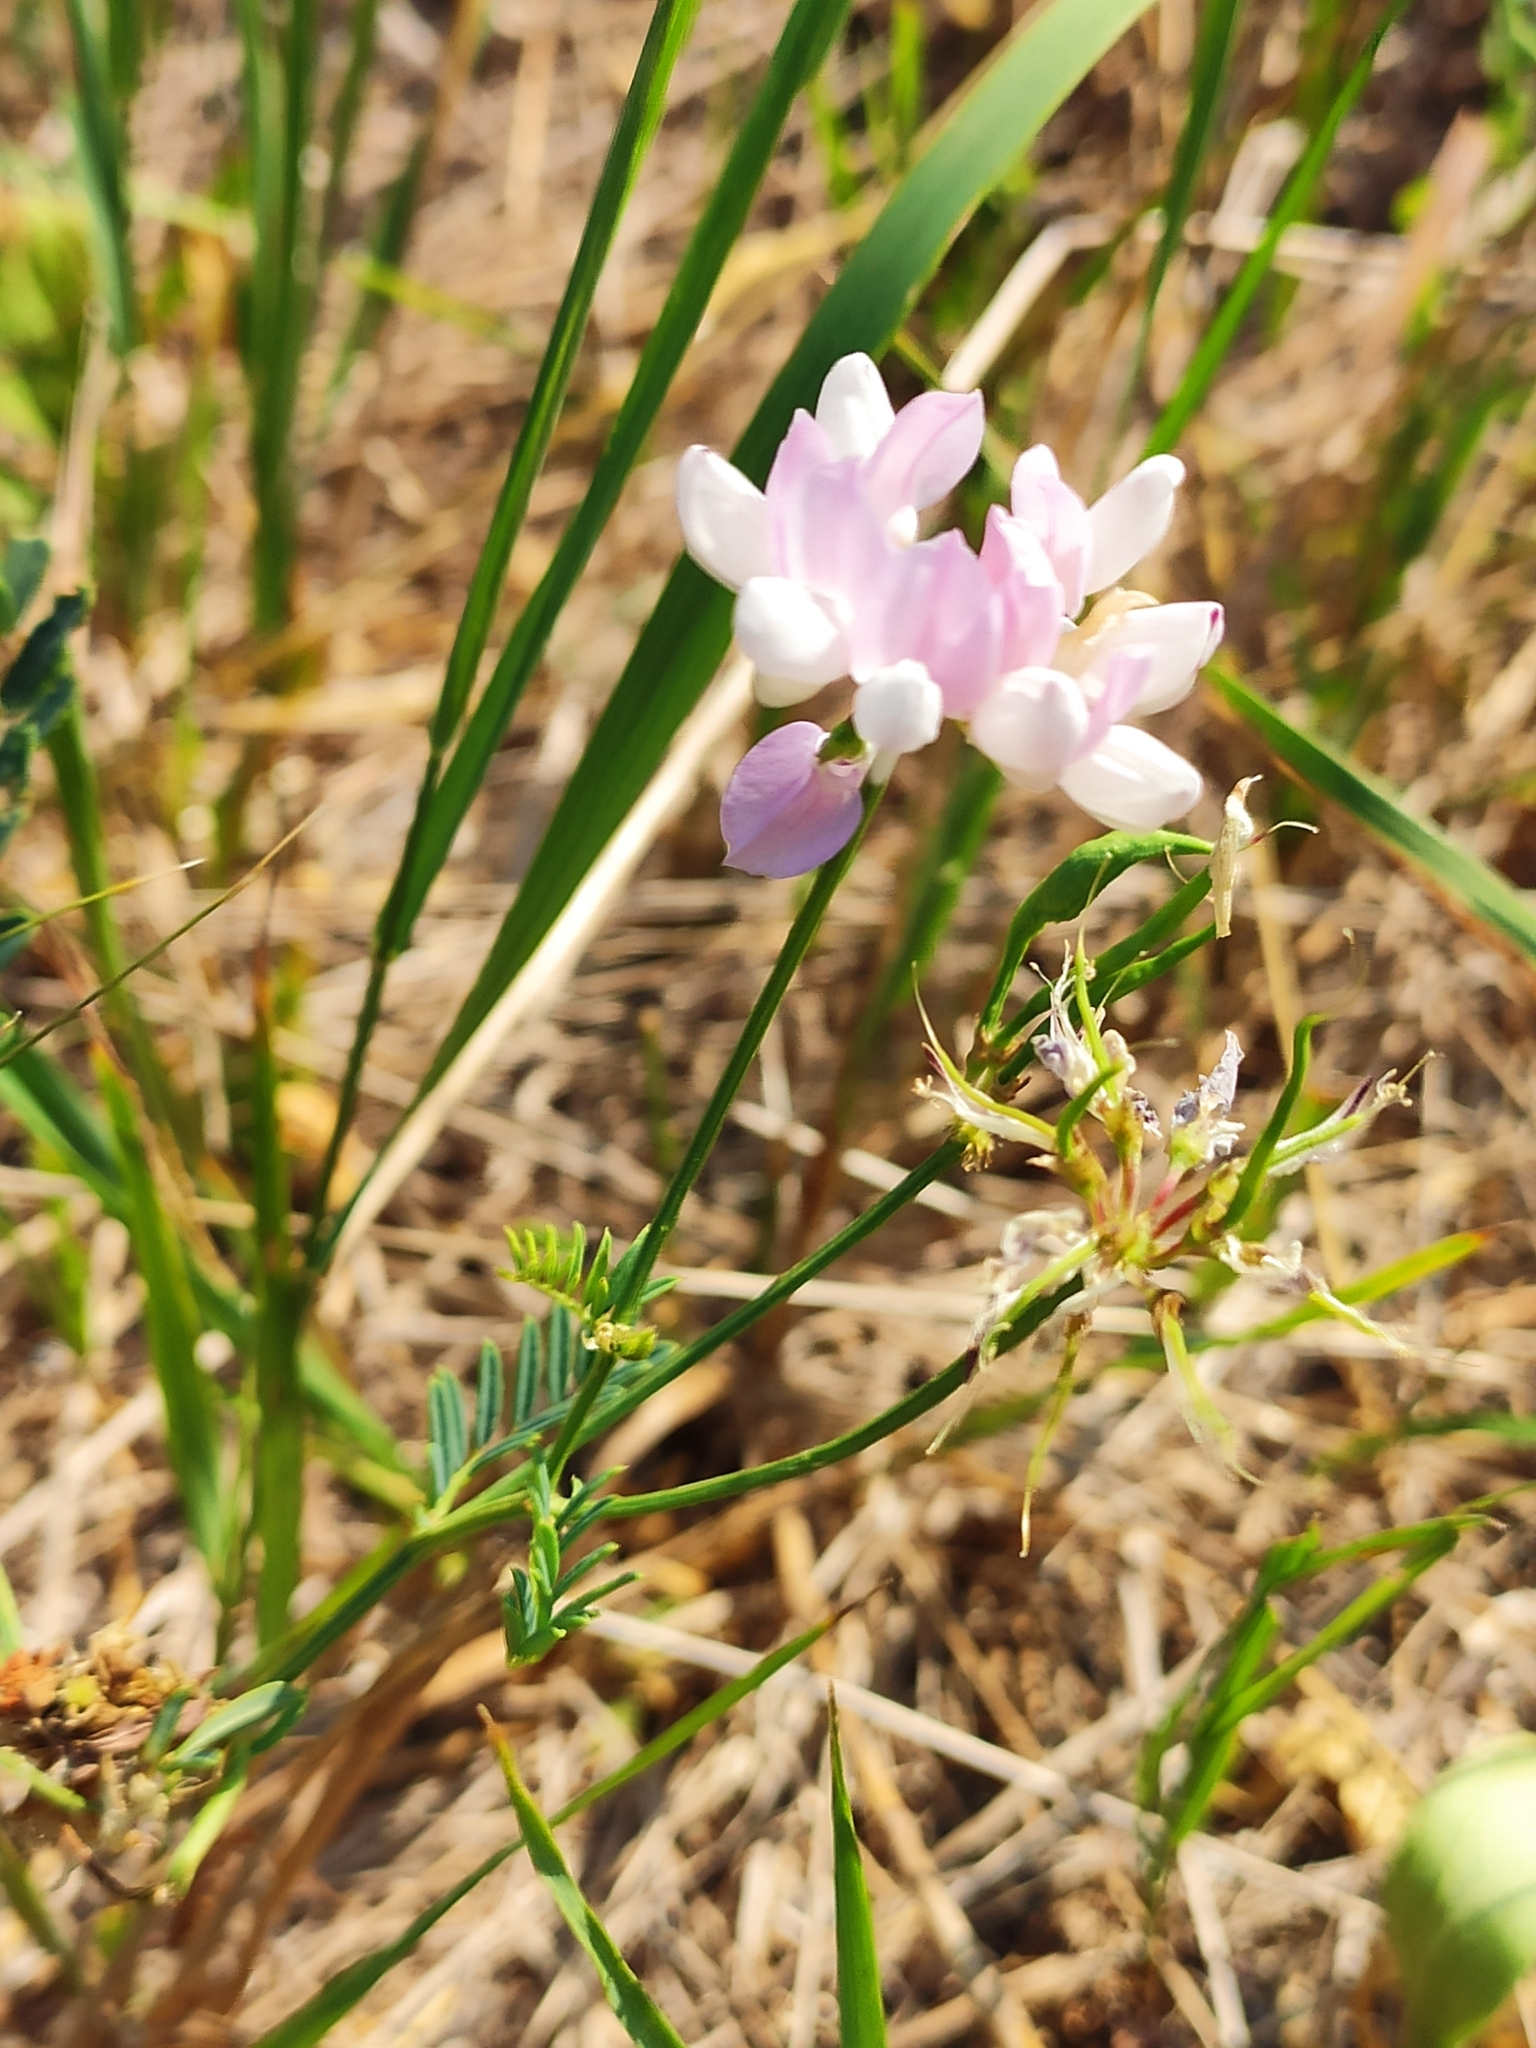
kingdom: Plantae
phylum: Tracheophyta
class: Magnoliopsida
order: Fabales
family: Fabaceae
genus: Coronilla
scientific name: Coronilla varia
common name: Crownvetch
